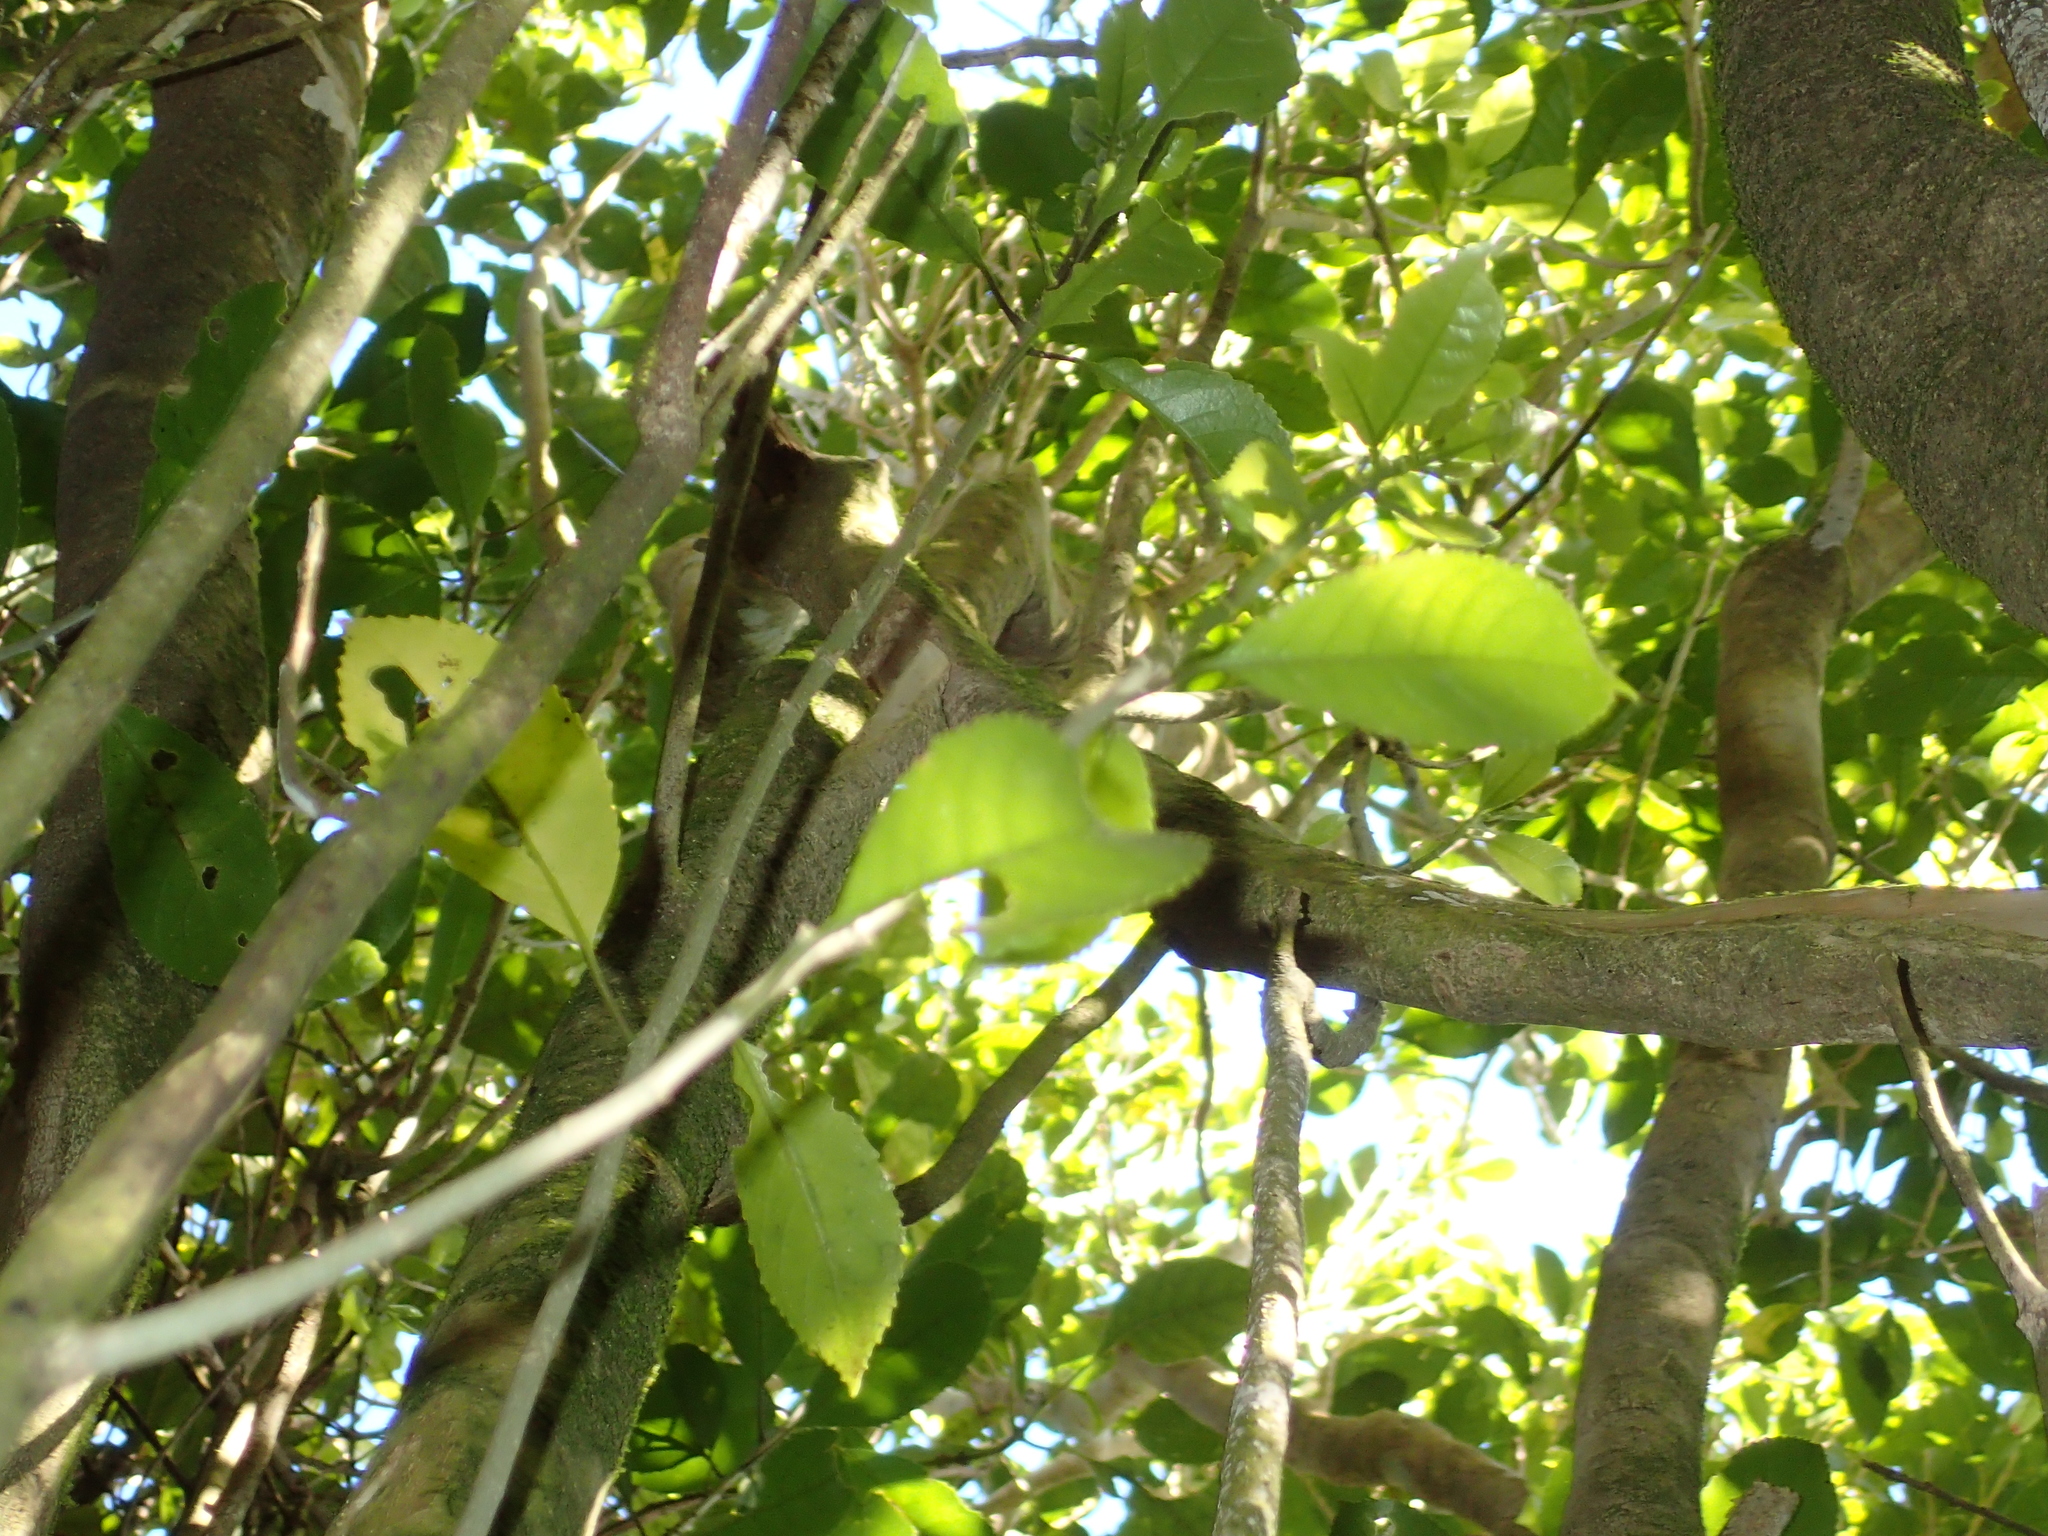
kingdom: Plantae
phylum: Tracheophyta
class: Magnoliopsida
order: Malpighiales
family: Violaceae
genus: Melicytus
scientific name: Melicytus ramiflorus
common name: Mahoe
